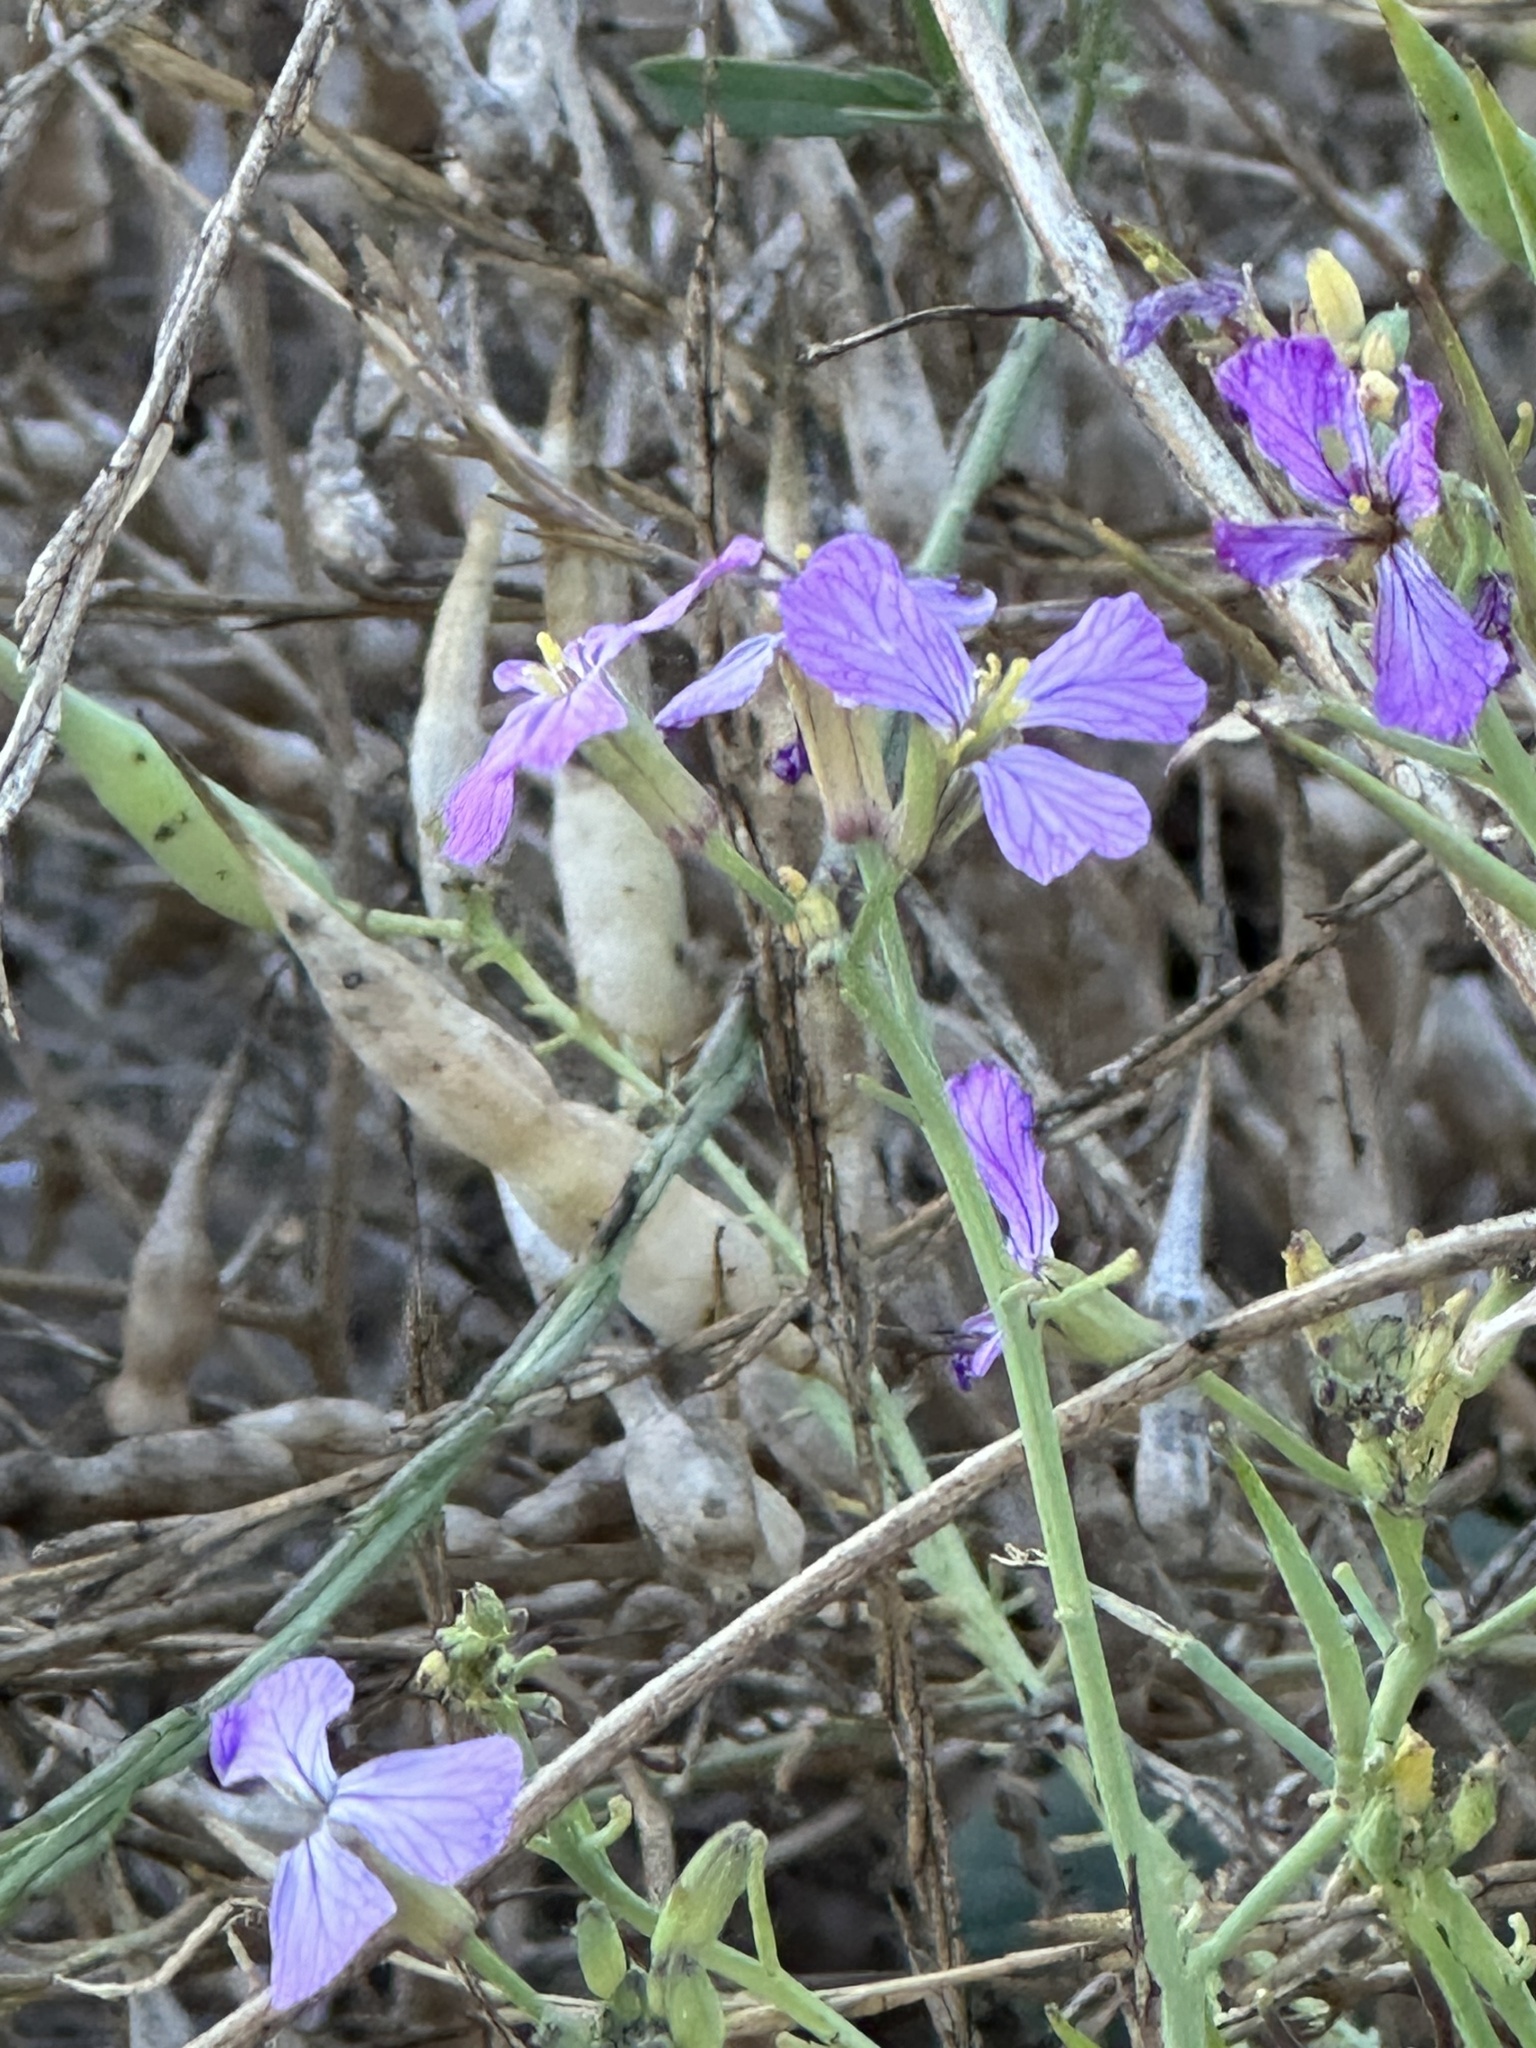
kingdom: Plantae
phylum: Tracheophyta
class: Magnoliopsida
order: Brassicales
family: Brassicaceae
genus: Raphanus
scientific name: Raphanus sativus
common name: Cultivated radish
